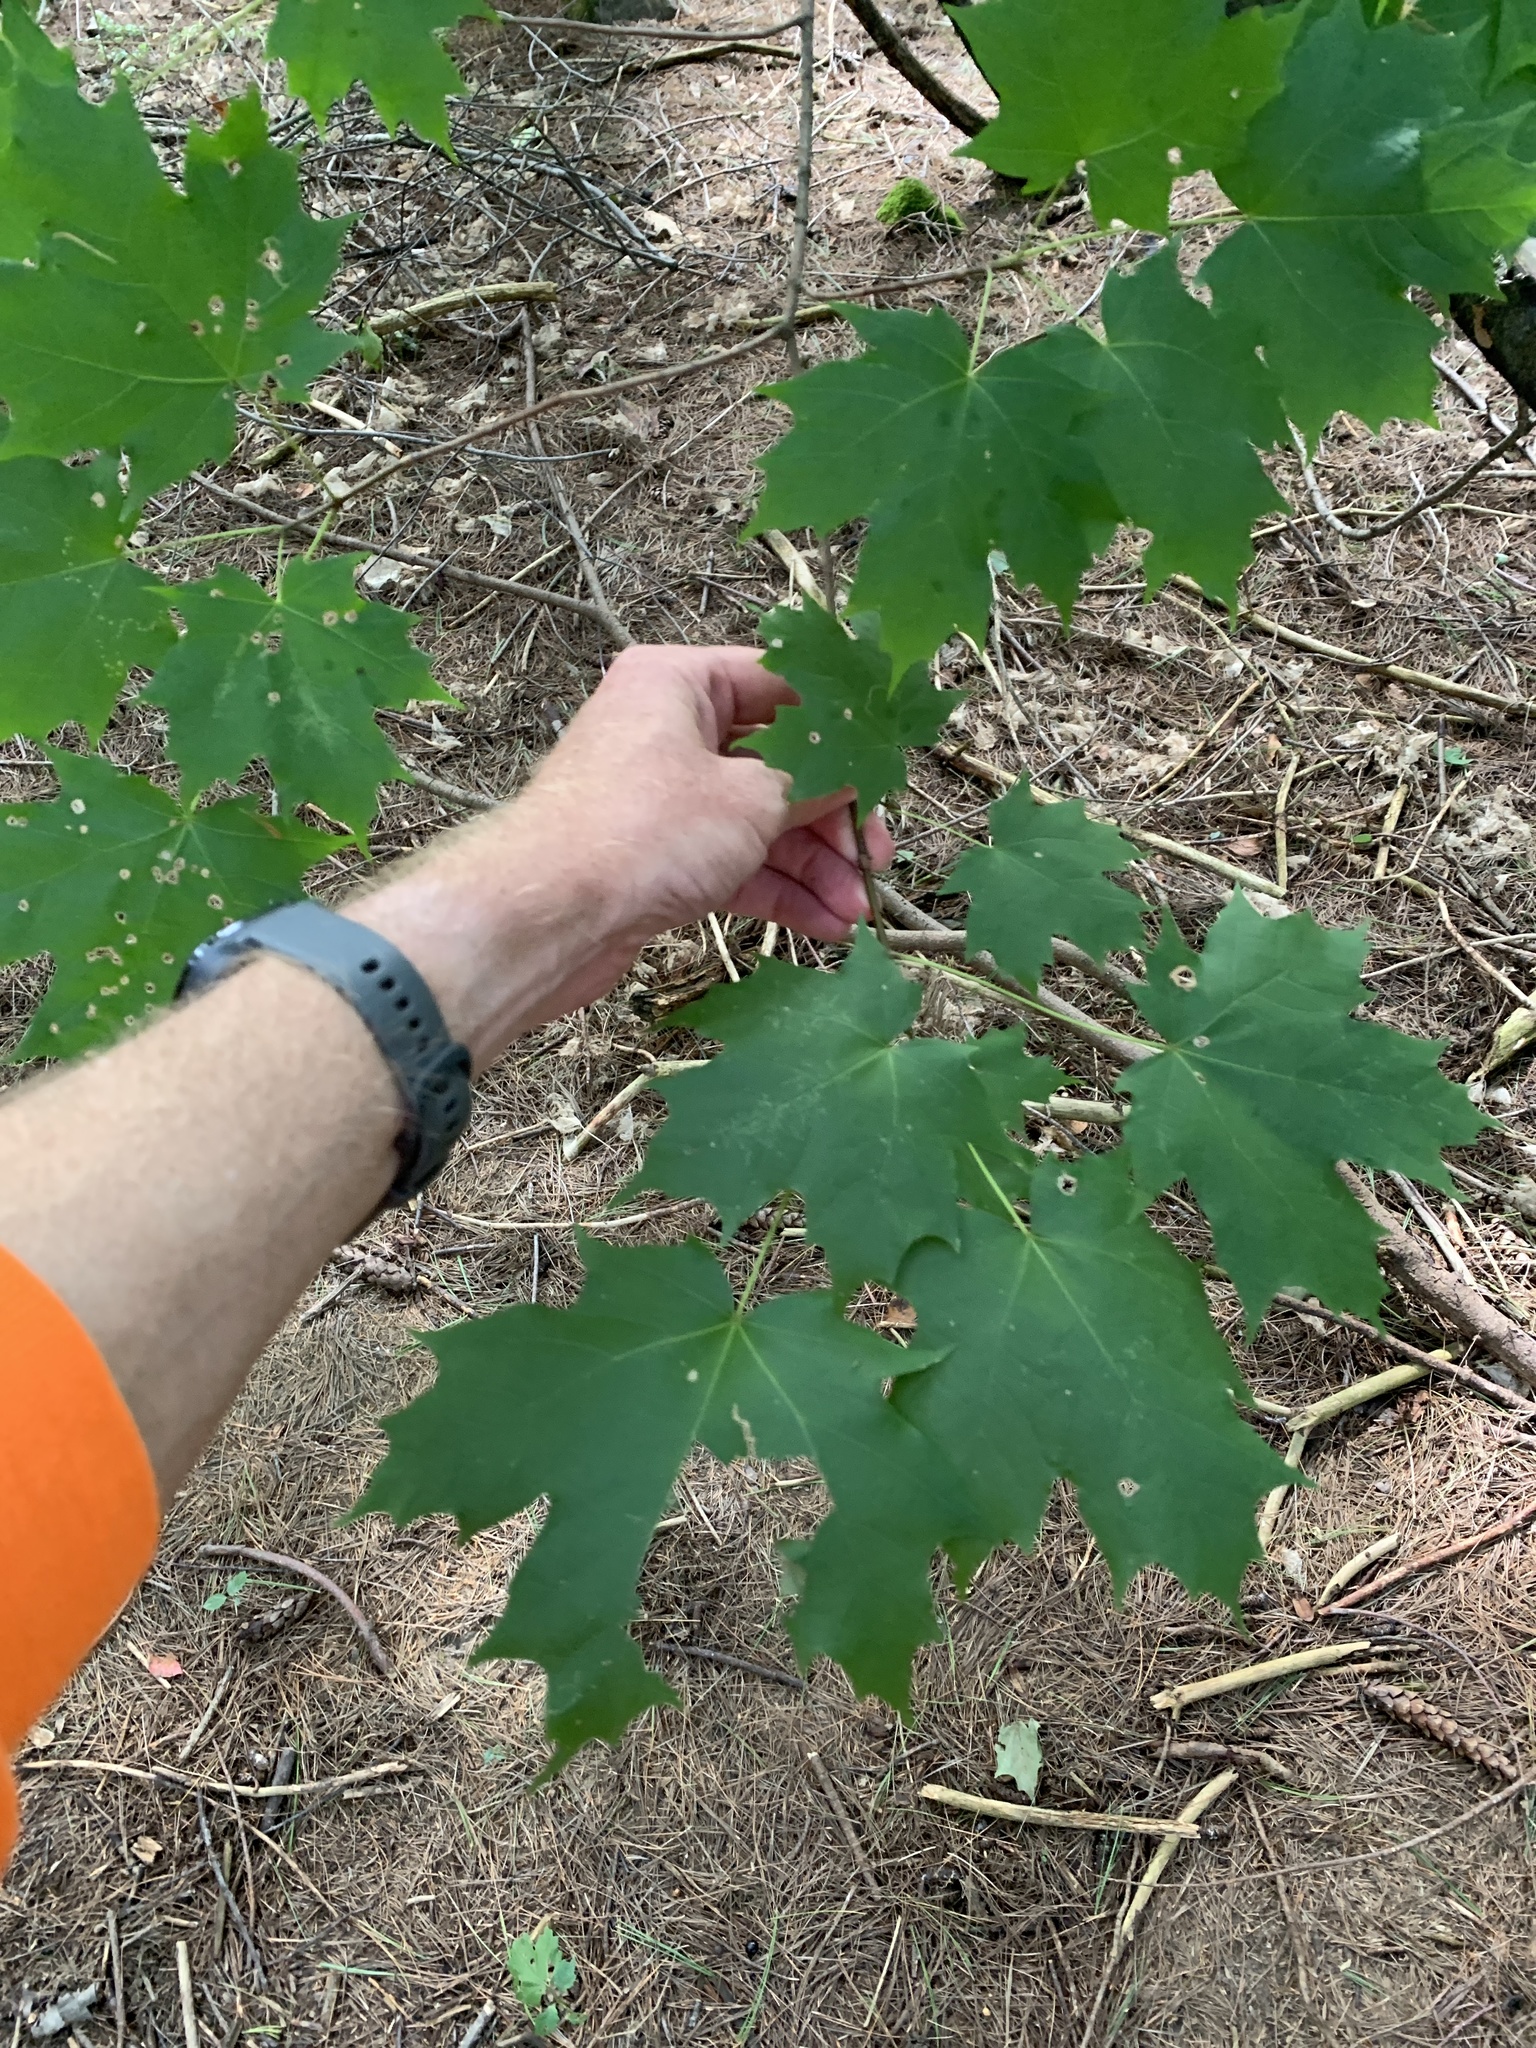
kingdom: Plantae
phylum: Tracheophyta
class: Magnoliopsida
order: Sapindales
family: Sapindaceae
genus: Acer
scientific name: Acer saccharum
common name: Sugar maple
